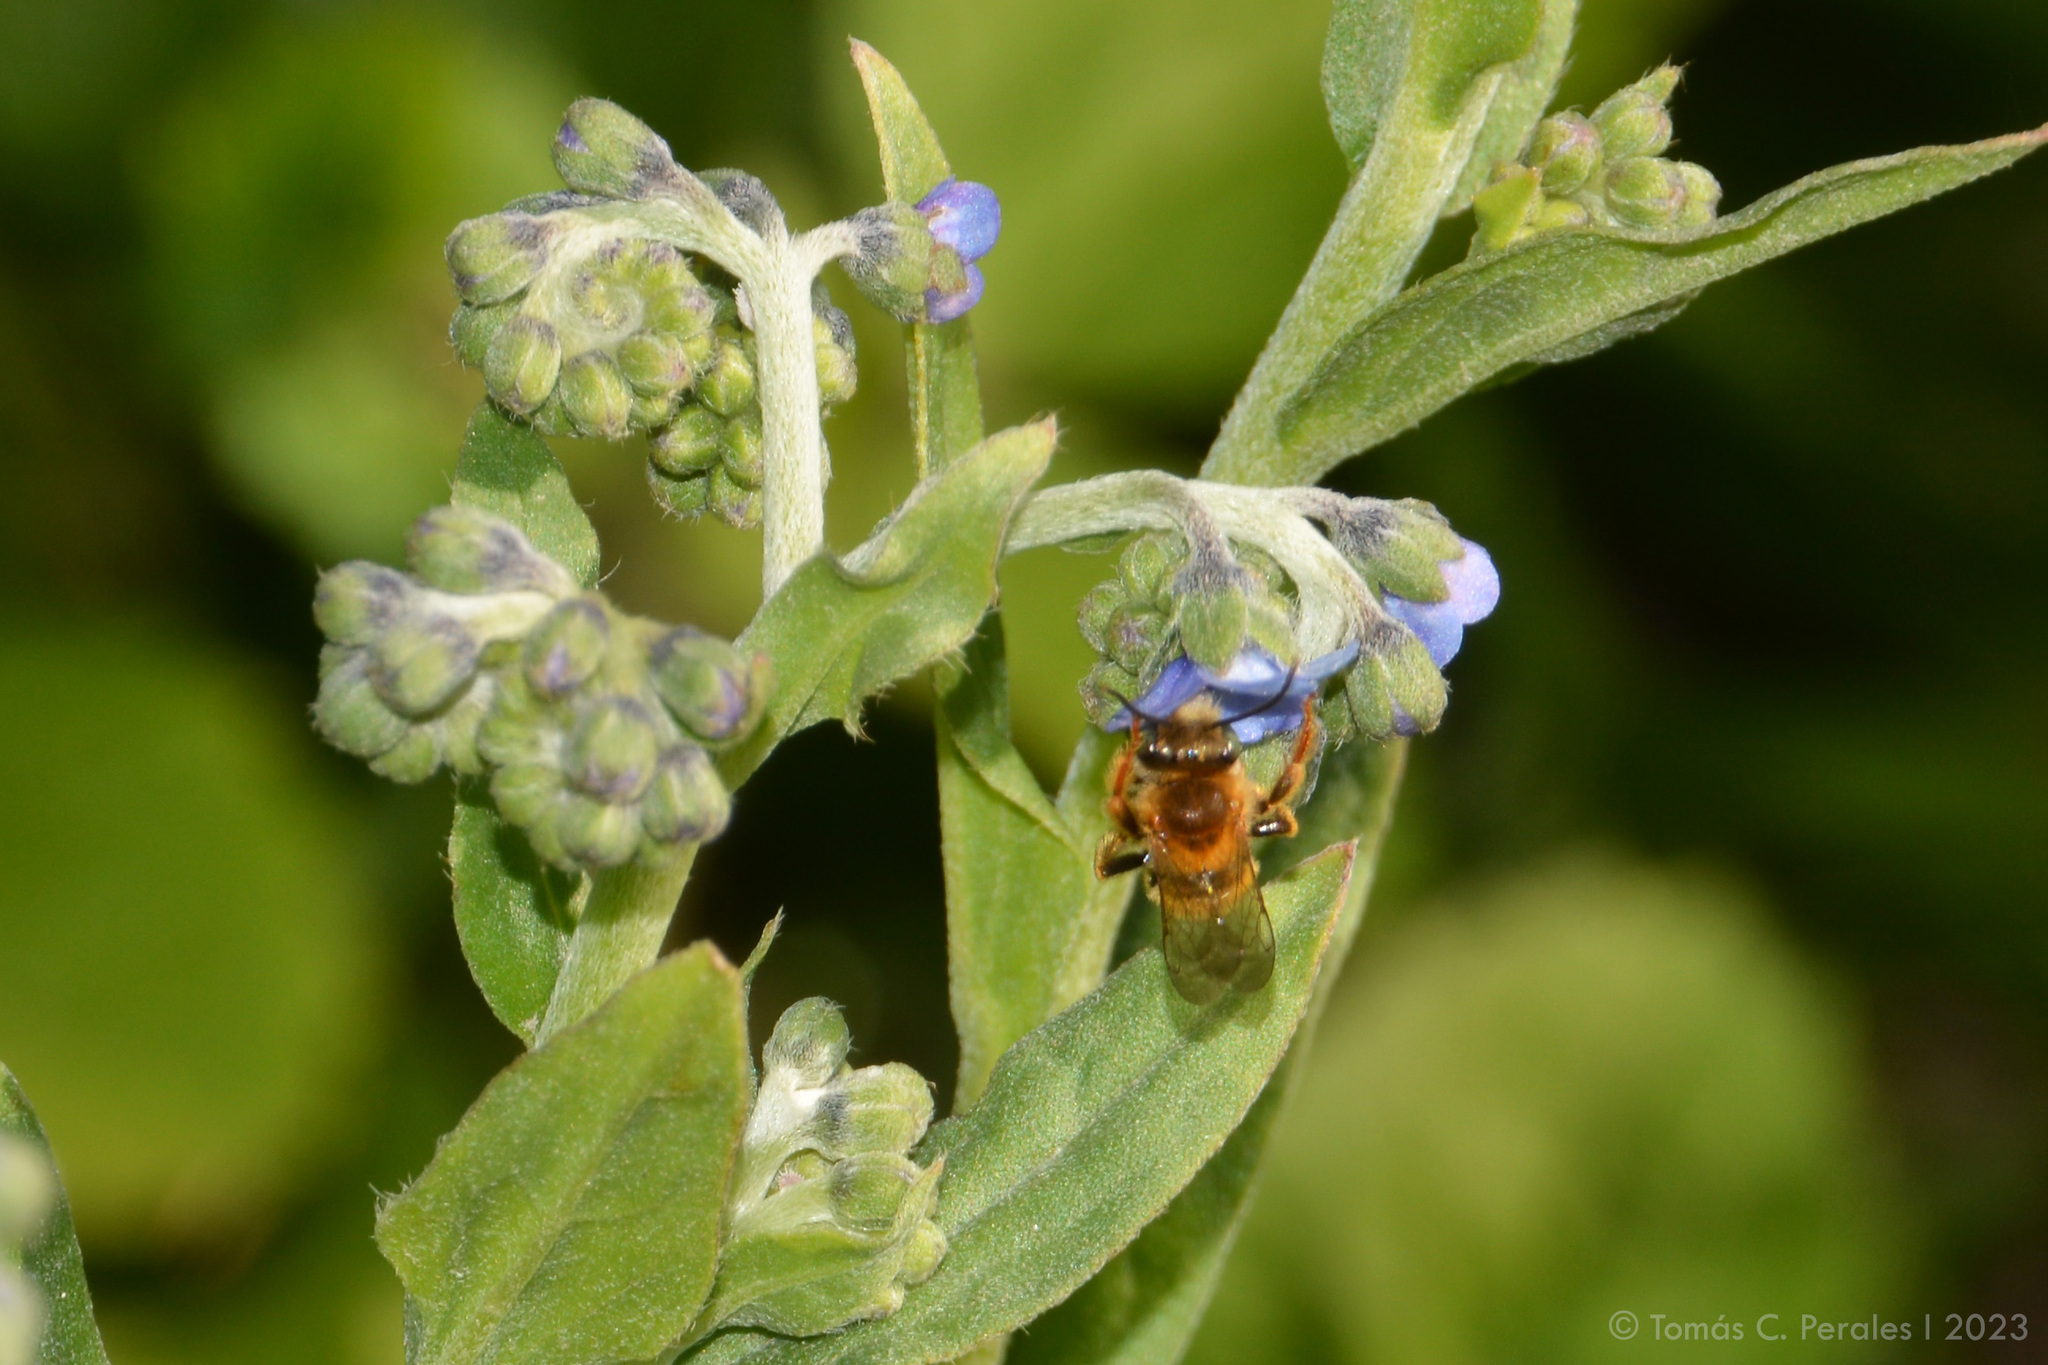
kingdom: Plantae
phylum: Tracheophyta
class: Magnoliopsida
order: Boraginales
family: Boraginaceae
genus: Cynoglossum
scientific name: Cynoglossum amabile
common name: Chinese hound's tongue
